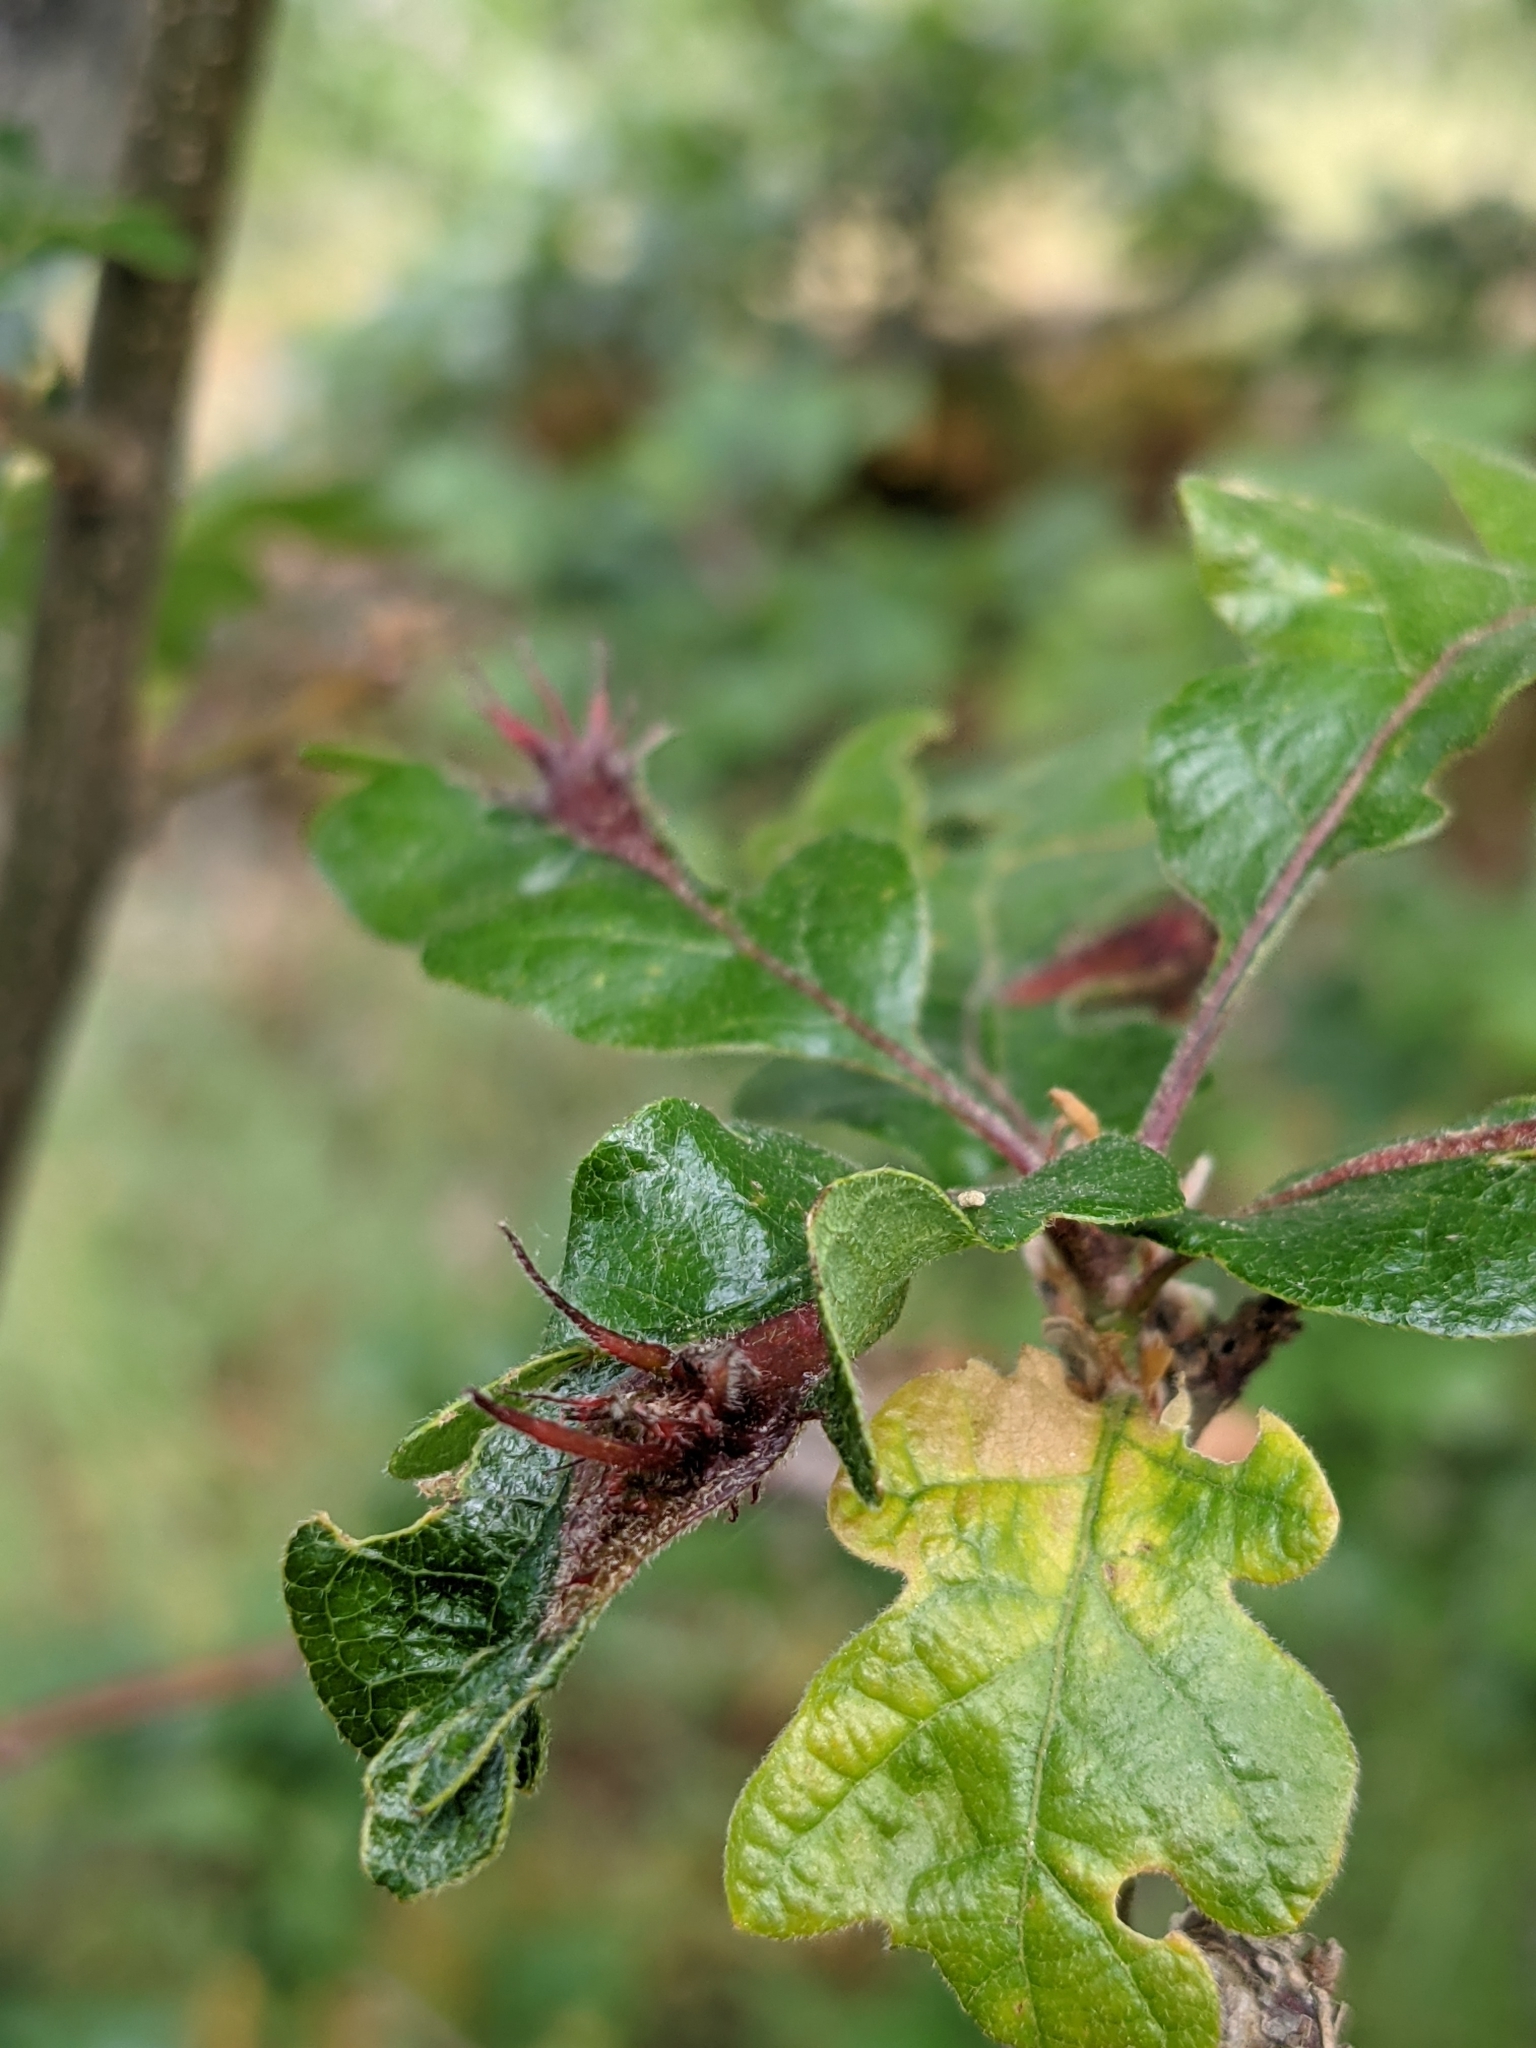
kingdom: Animalia
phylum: Arthropoda
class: Insecta
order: Hymenoptera
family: Cynipidae
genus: Andricus
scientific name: Andricus
